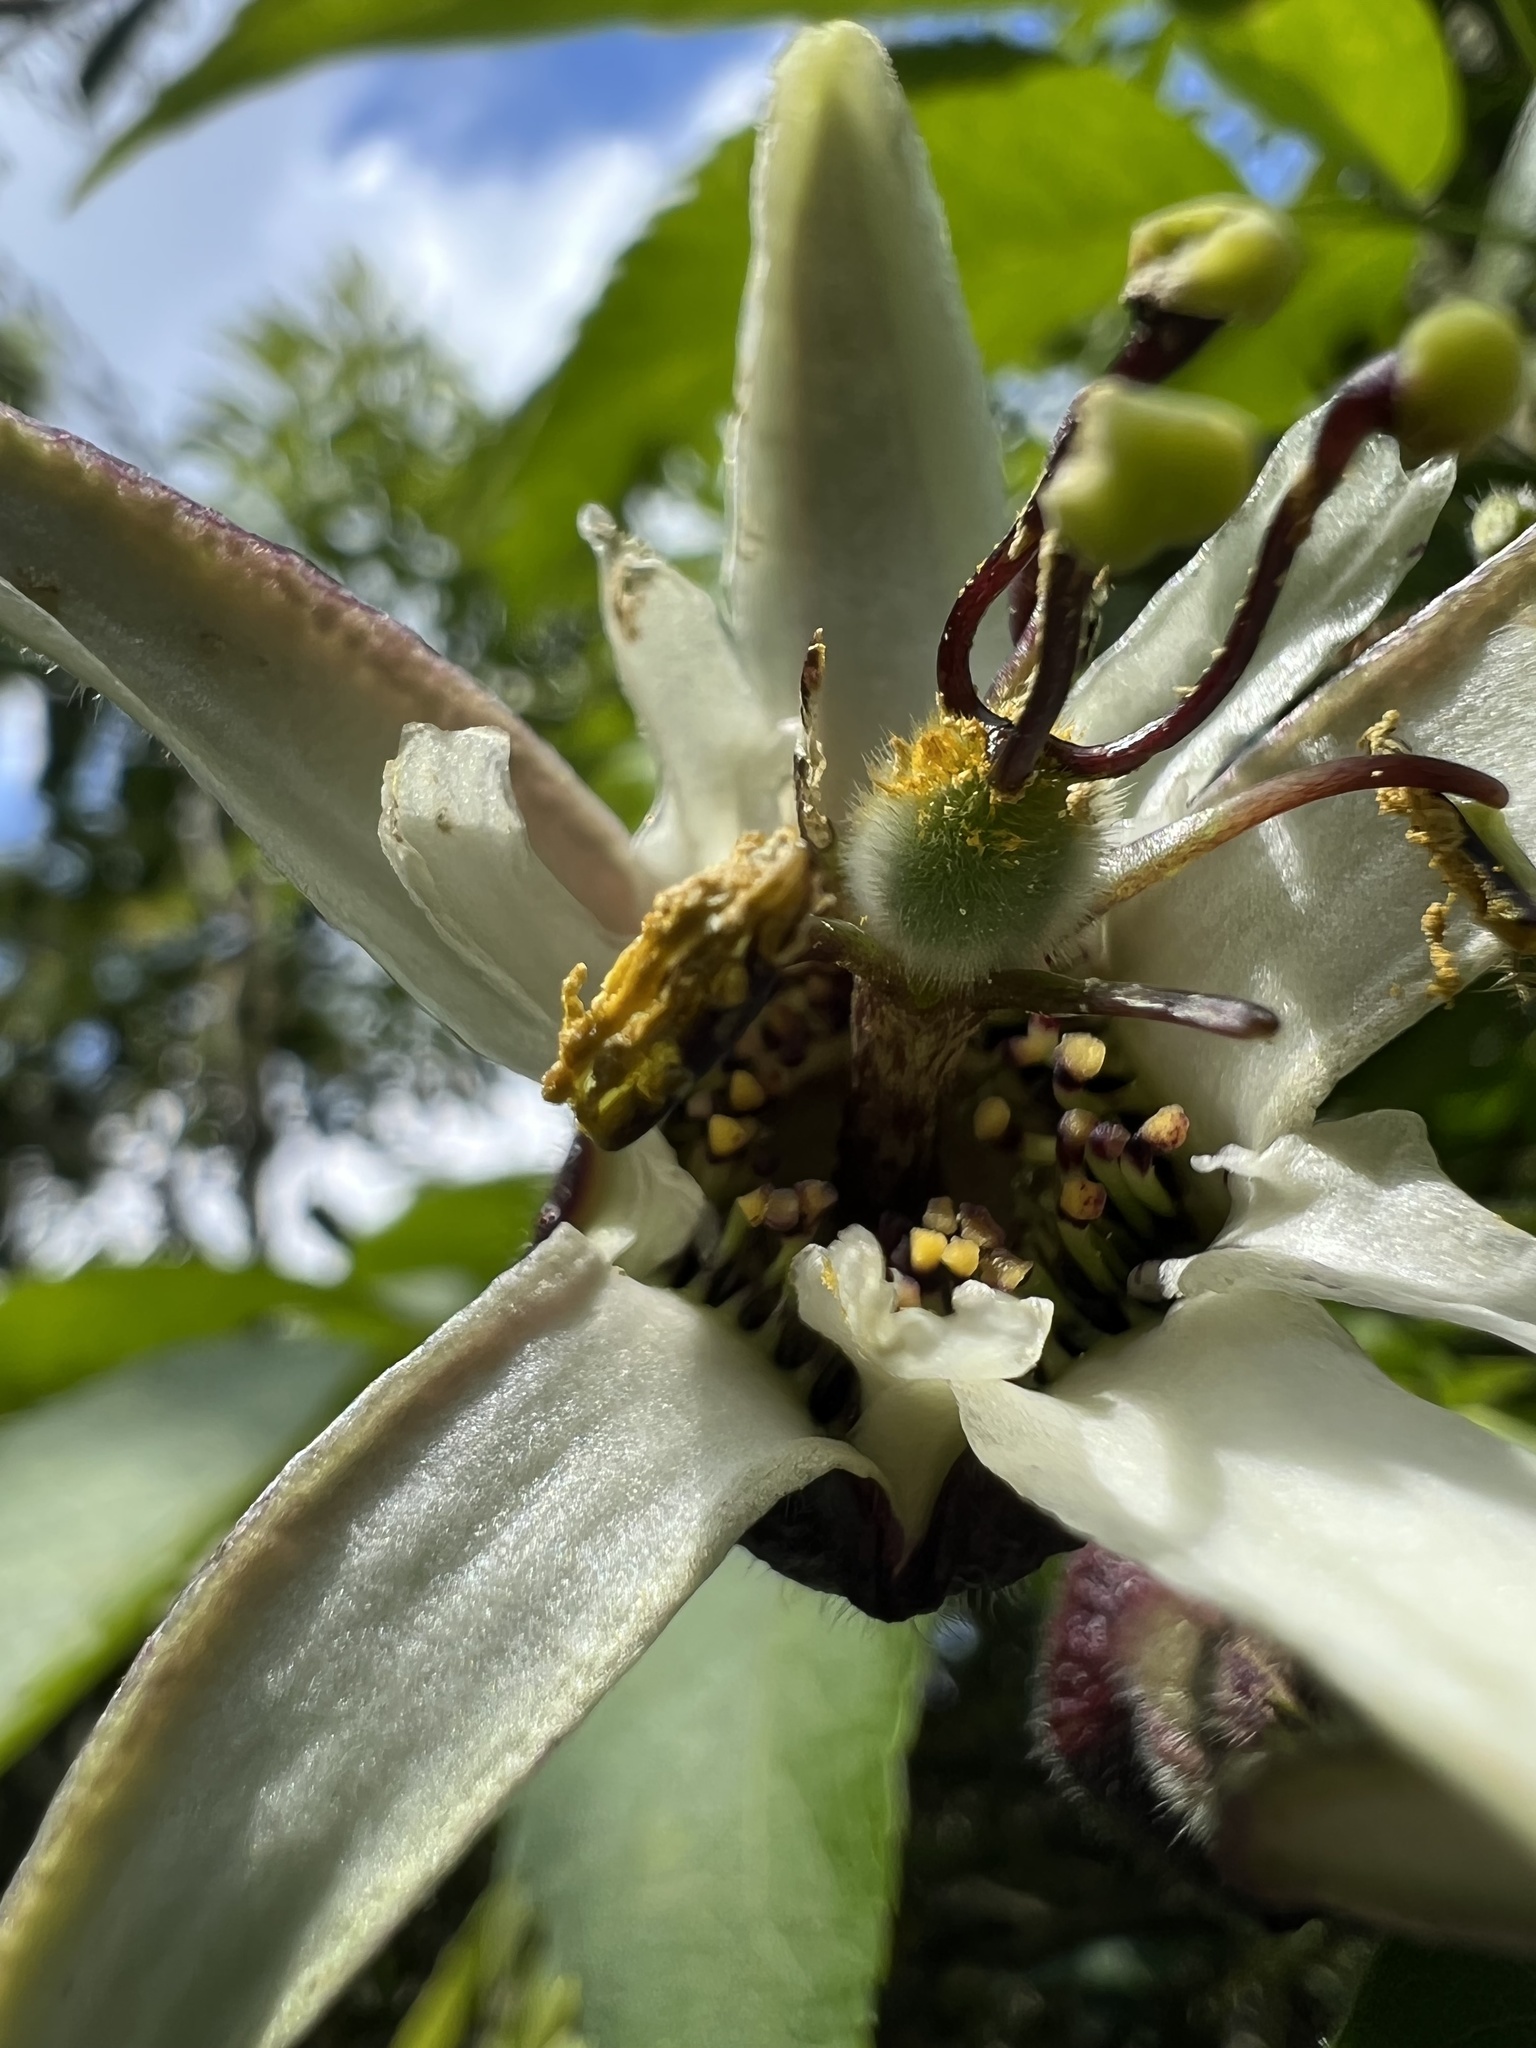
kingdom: Plantae
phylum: Tracheophyta
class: Magnoliopsida
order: Malpighiales
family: Passifloraceae
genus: Passiflora
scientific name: Passiflora bogotensis
